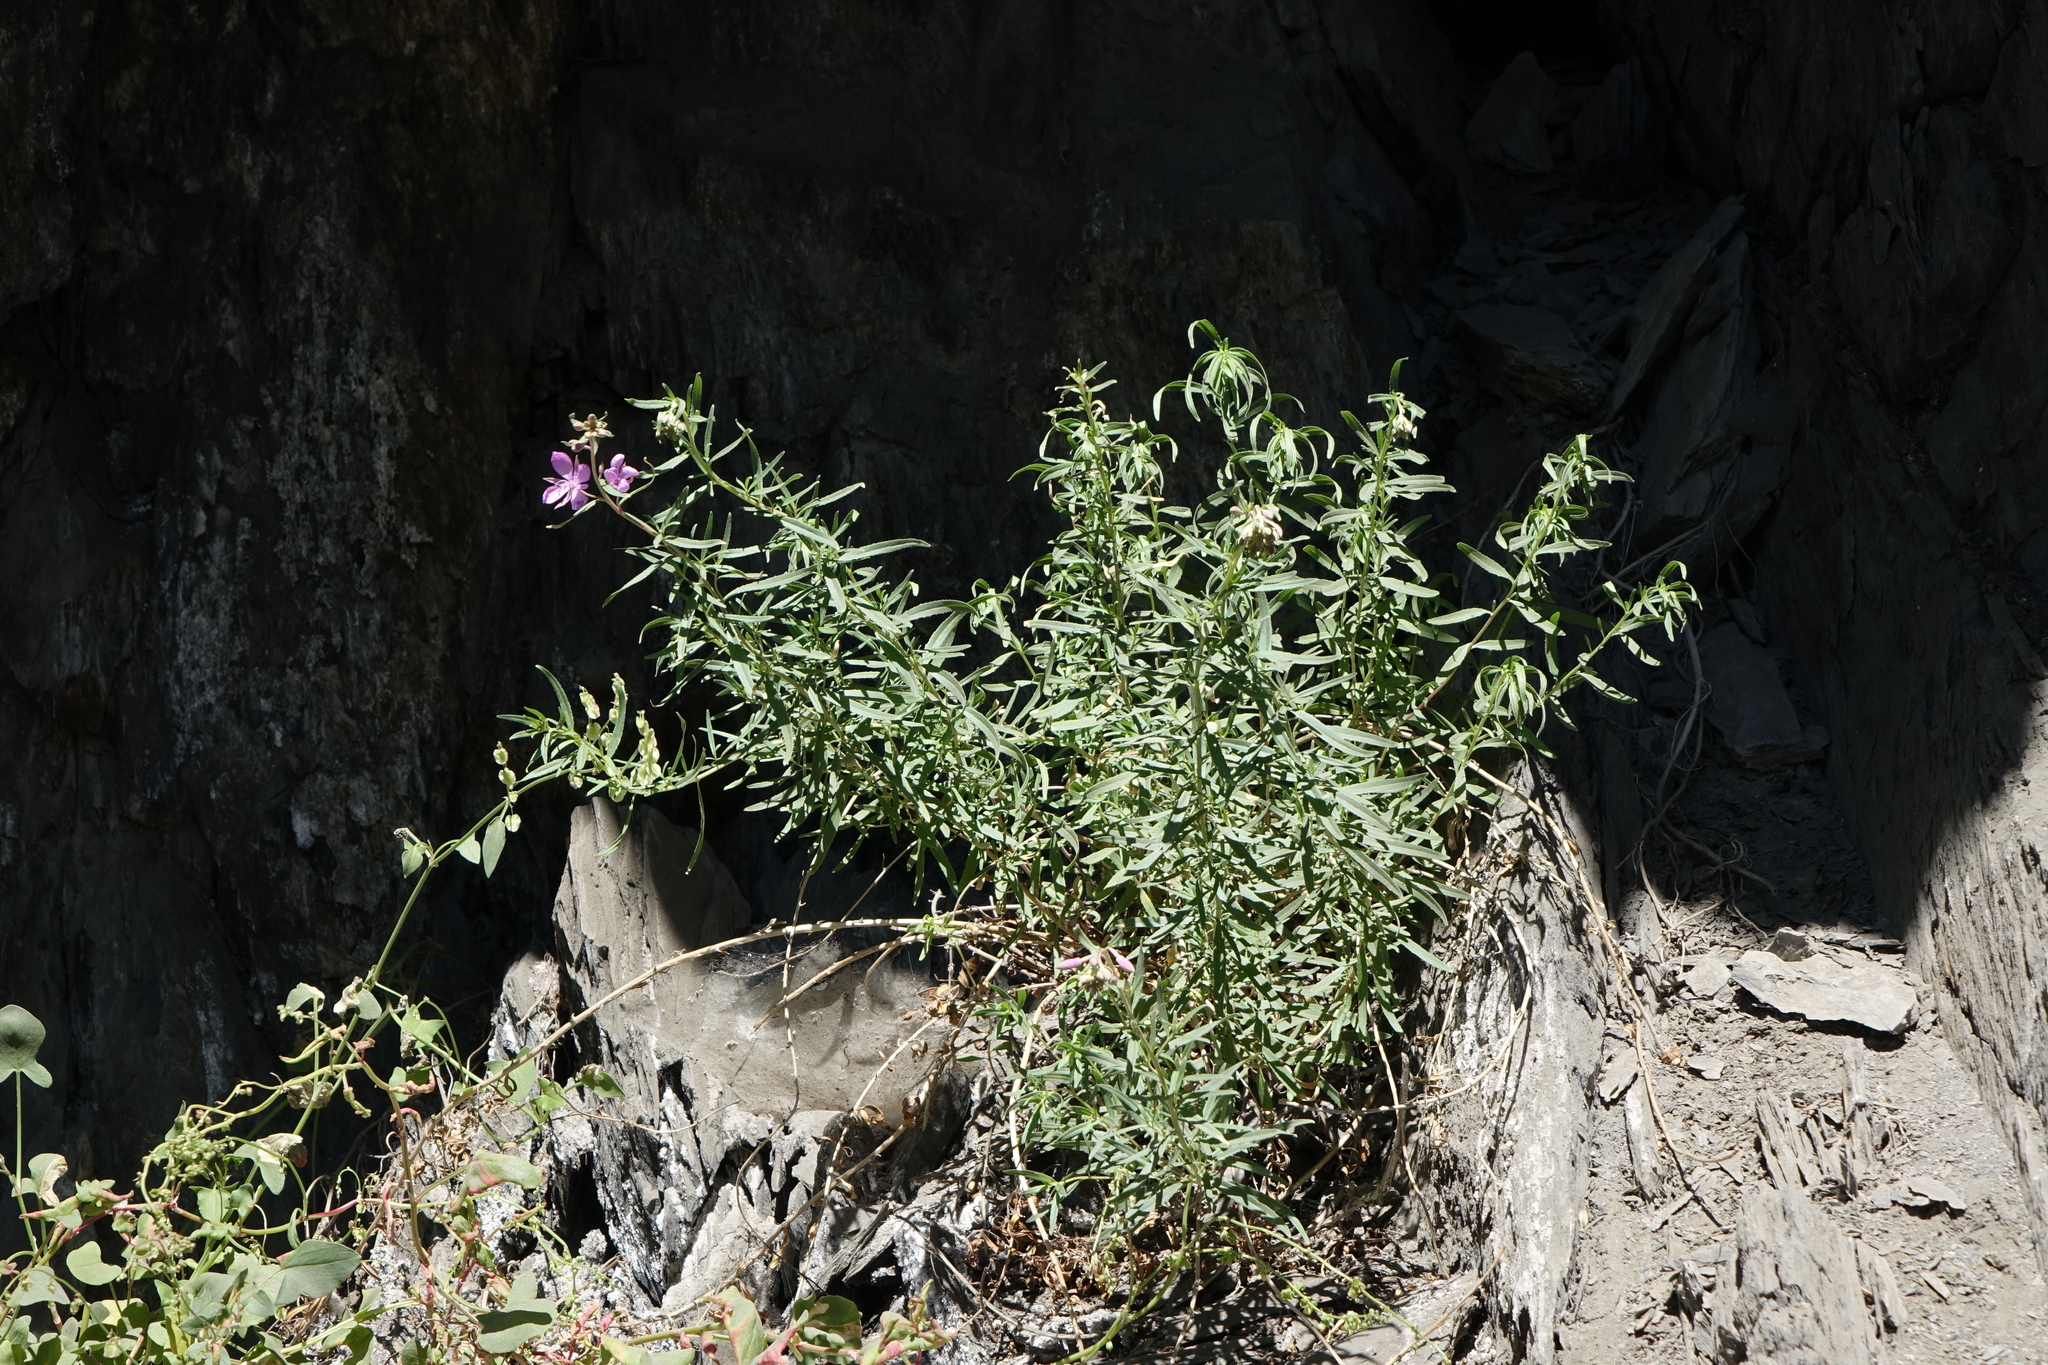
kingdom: Plantae
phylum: Tracheophyta
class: Magnoliopsida
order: Myrtales
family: Onagraceae
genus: Chamaenerion
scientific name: Chamaenerion colchicum
